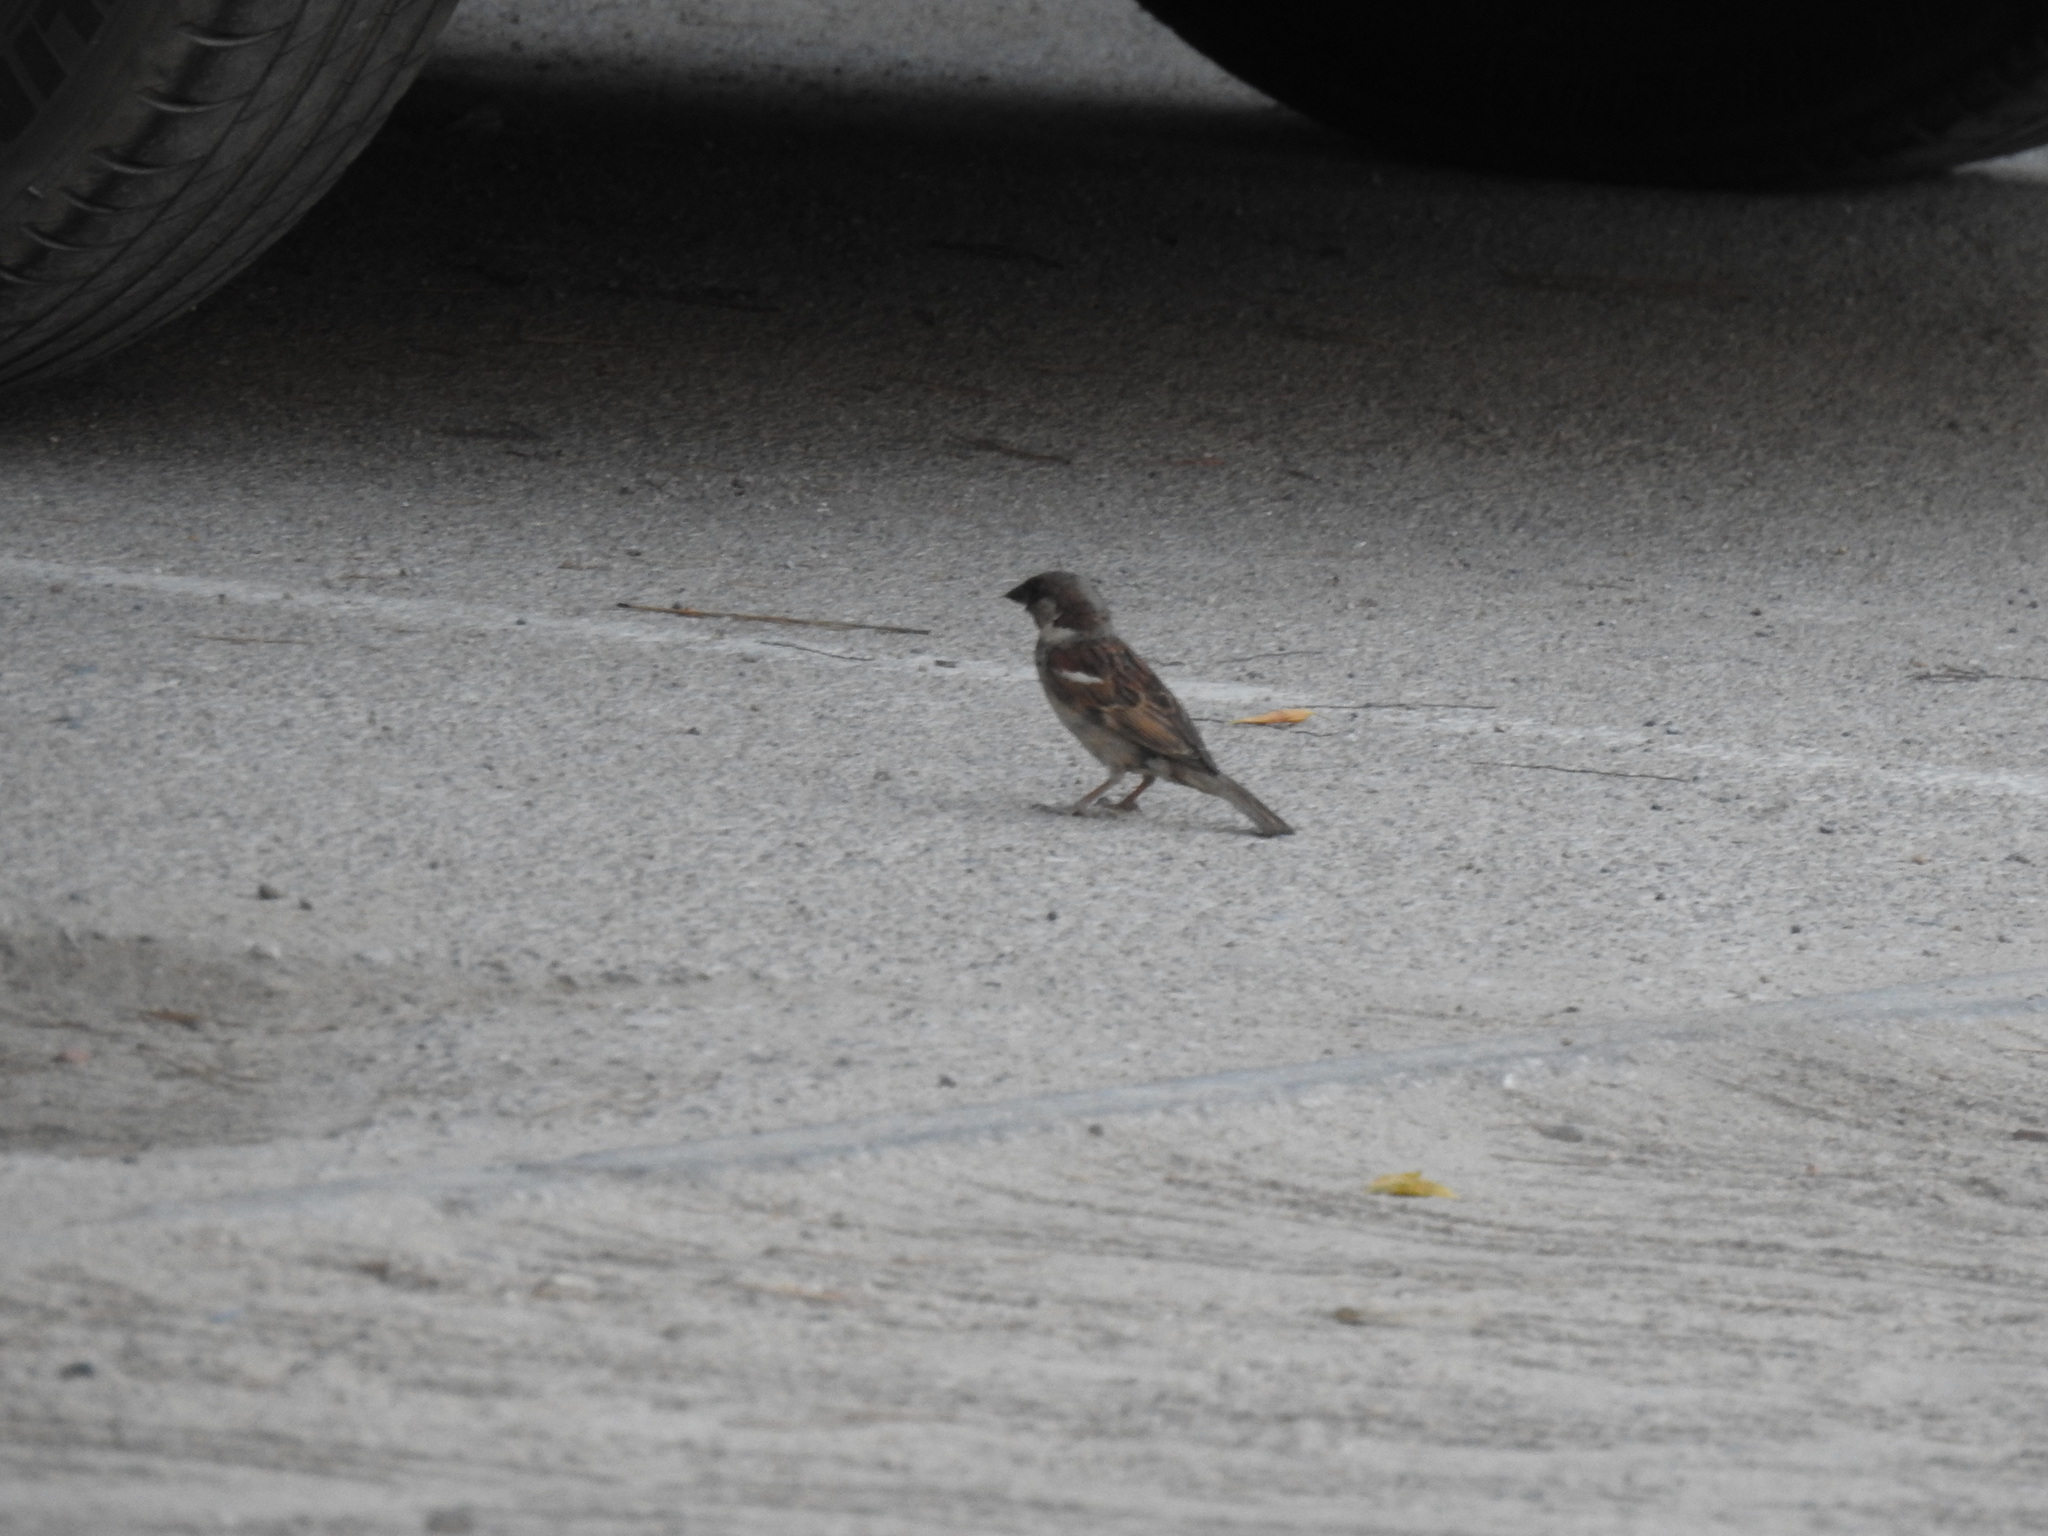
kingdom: Animalia
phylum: Chordata
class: Aves
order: Passeriformes
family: Passeridae
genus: Passer
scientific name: Passer domesticus
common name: House sparrow
